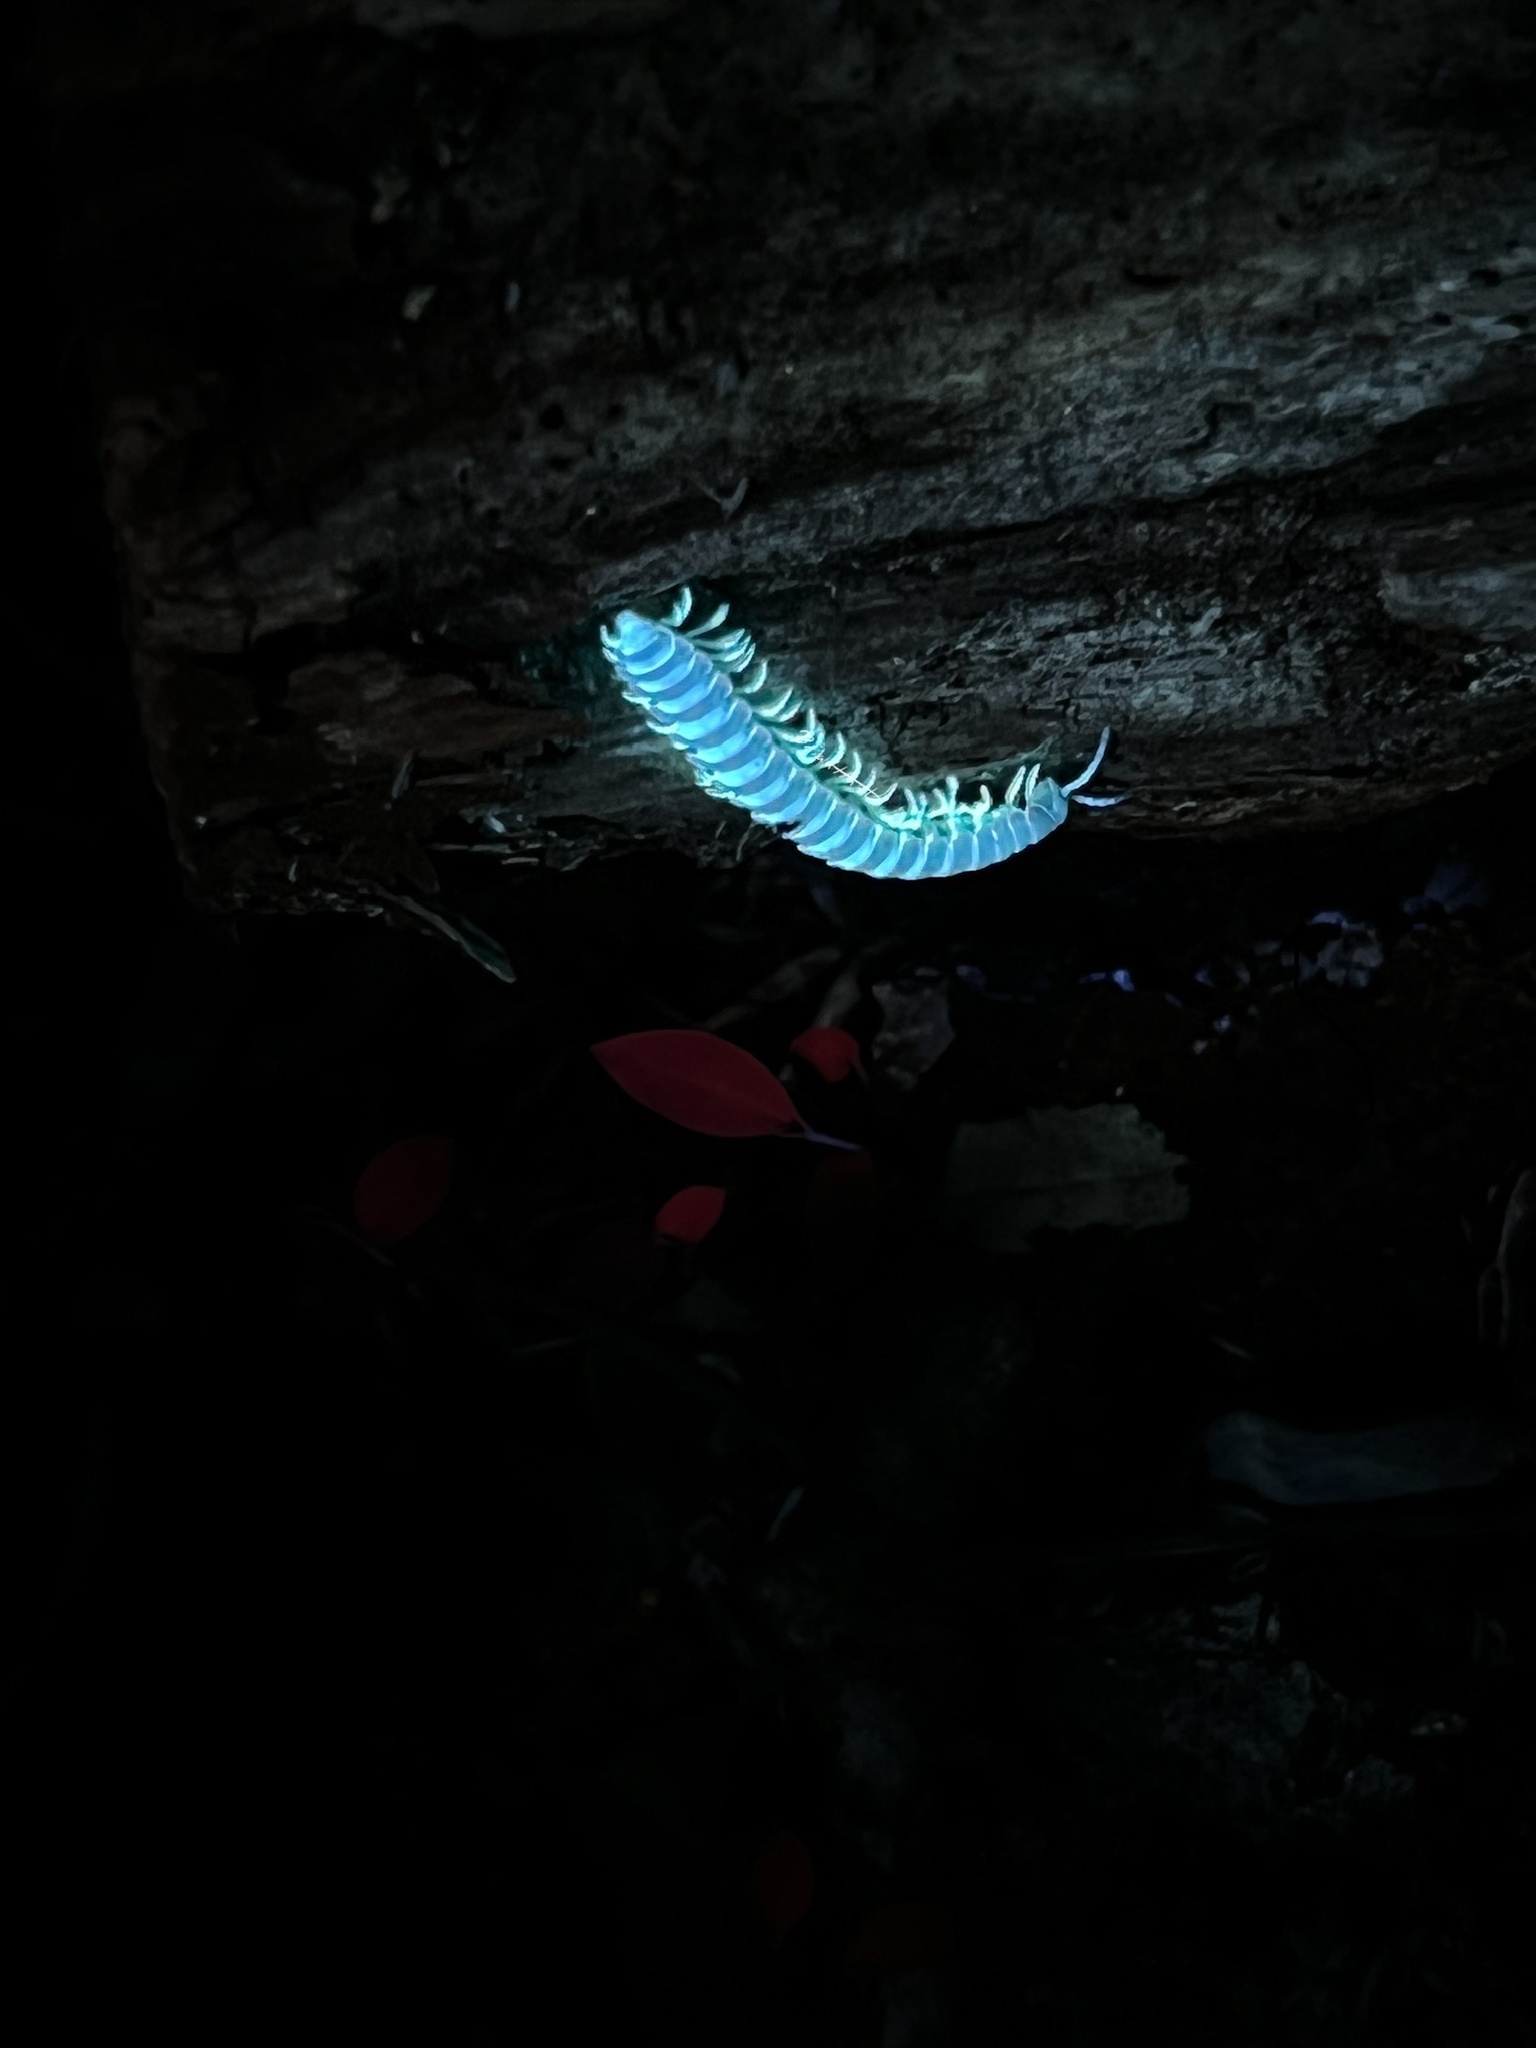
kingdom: Animalia
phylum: Arthropoda
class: Diplopoda
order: Polydesmida
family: Xystodesmidae
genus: Euryurus
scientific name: Euryurus leachii
